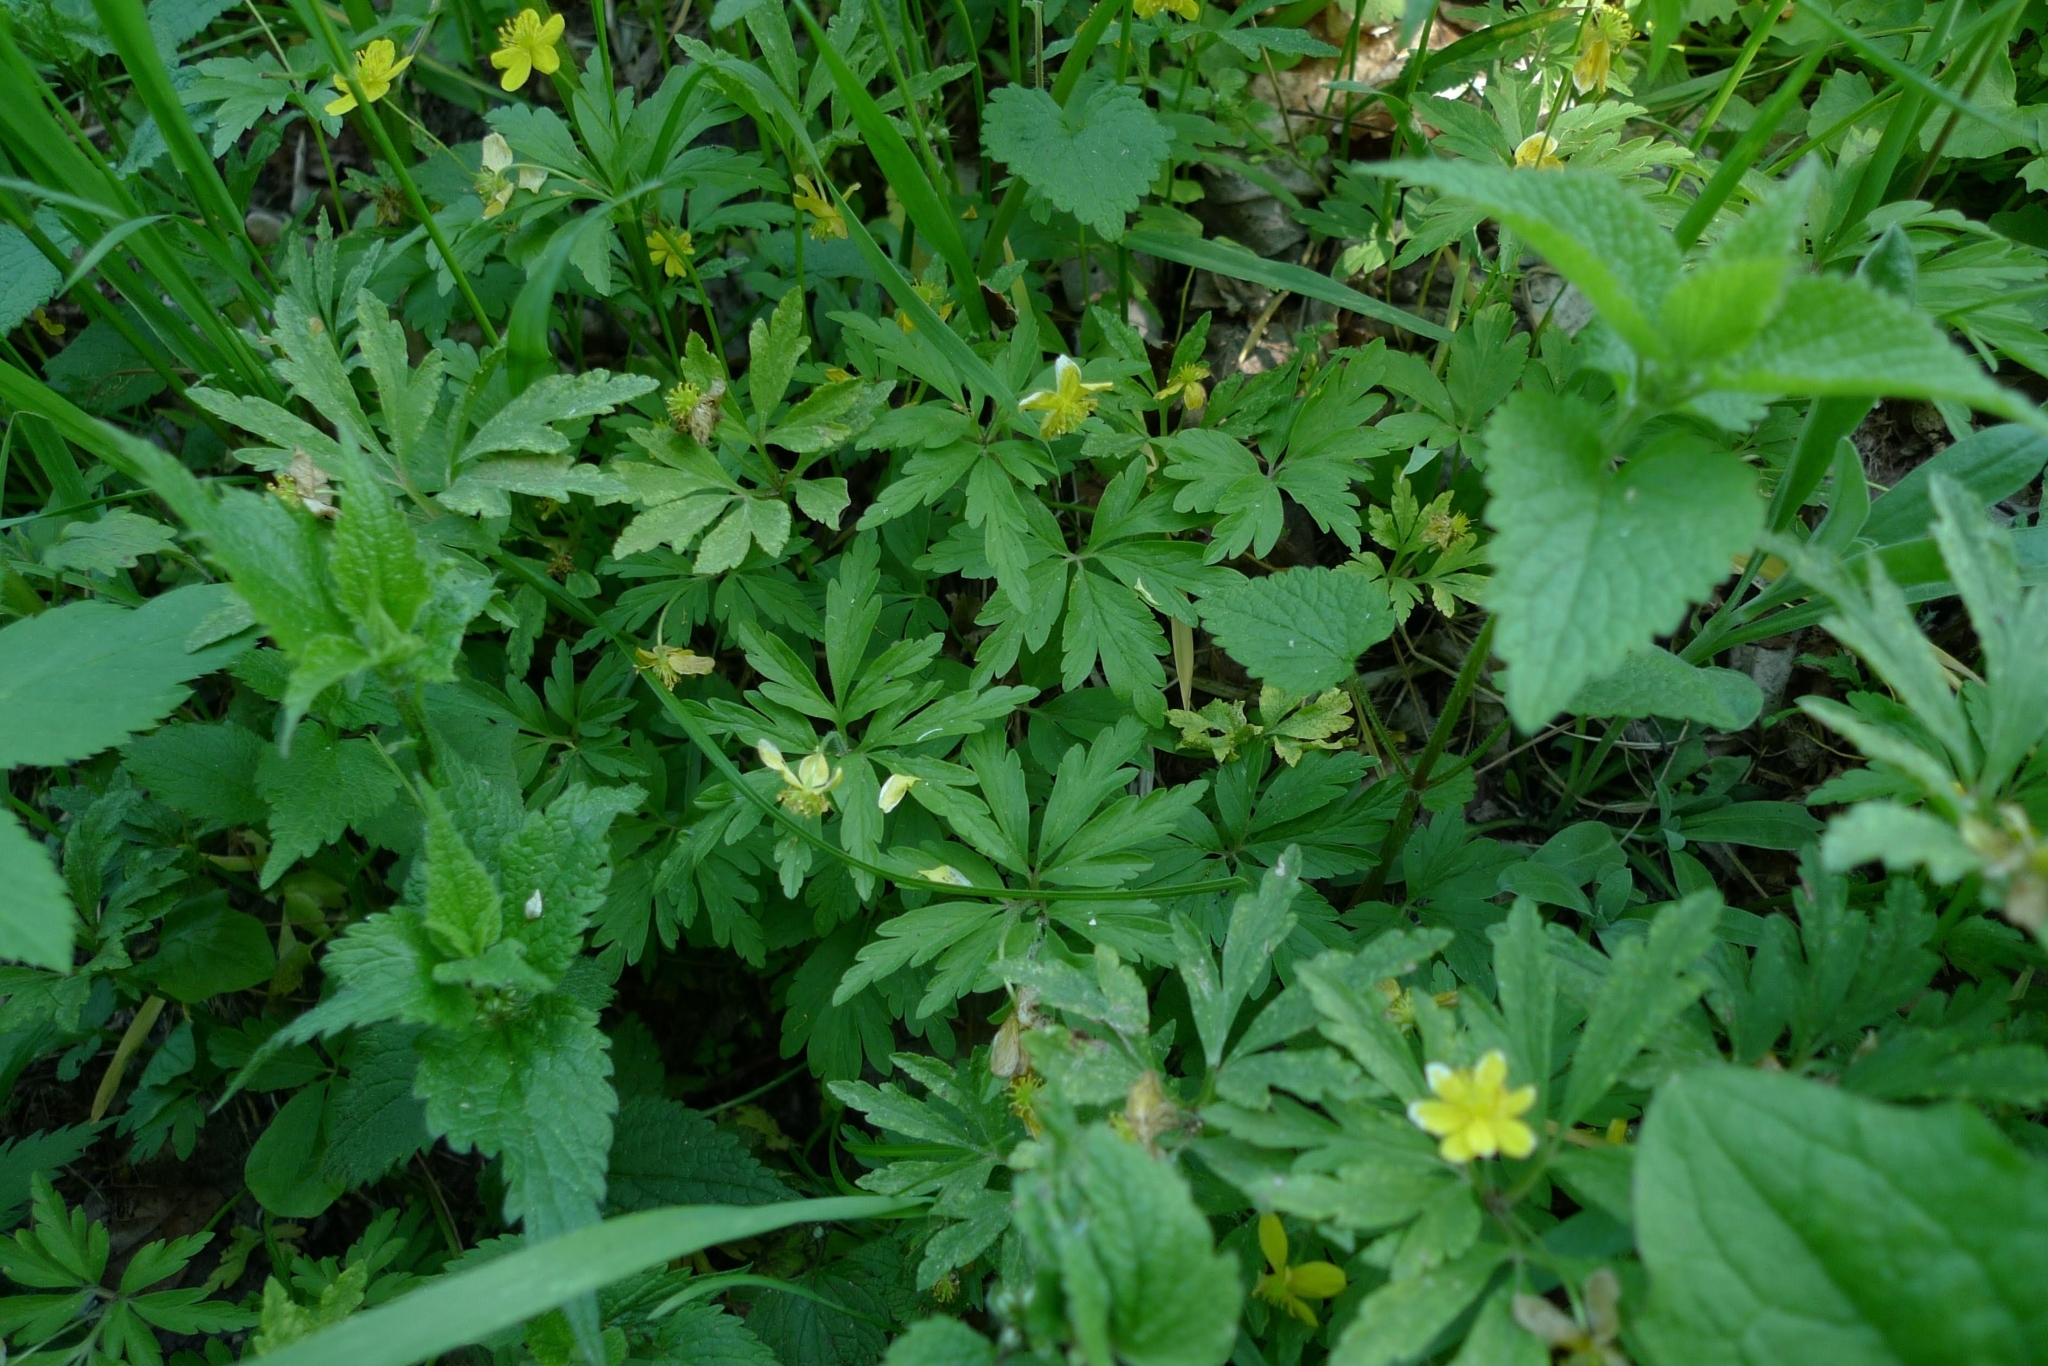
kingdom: Plantae
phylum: Tracheophyta
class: Magnoliopsida
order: Ranunculales
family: Ranunculaceae
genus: Anemone
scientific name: Anemone ranunculoides
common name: Yellow anemone
